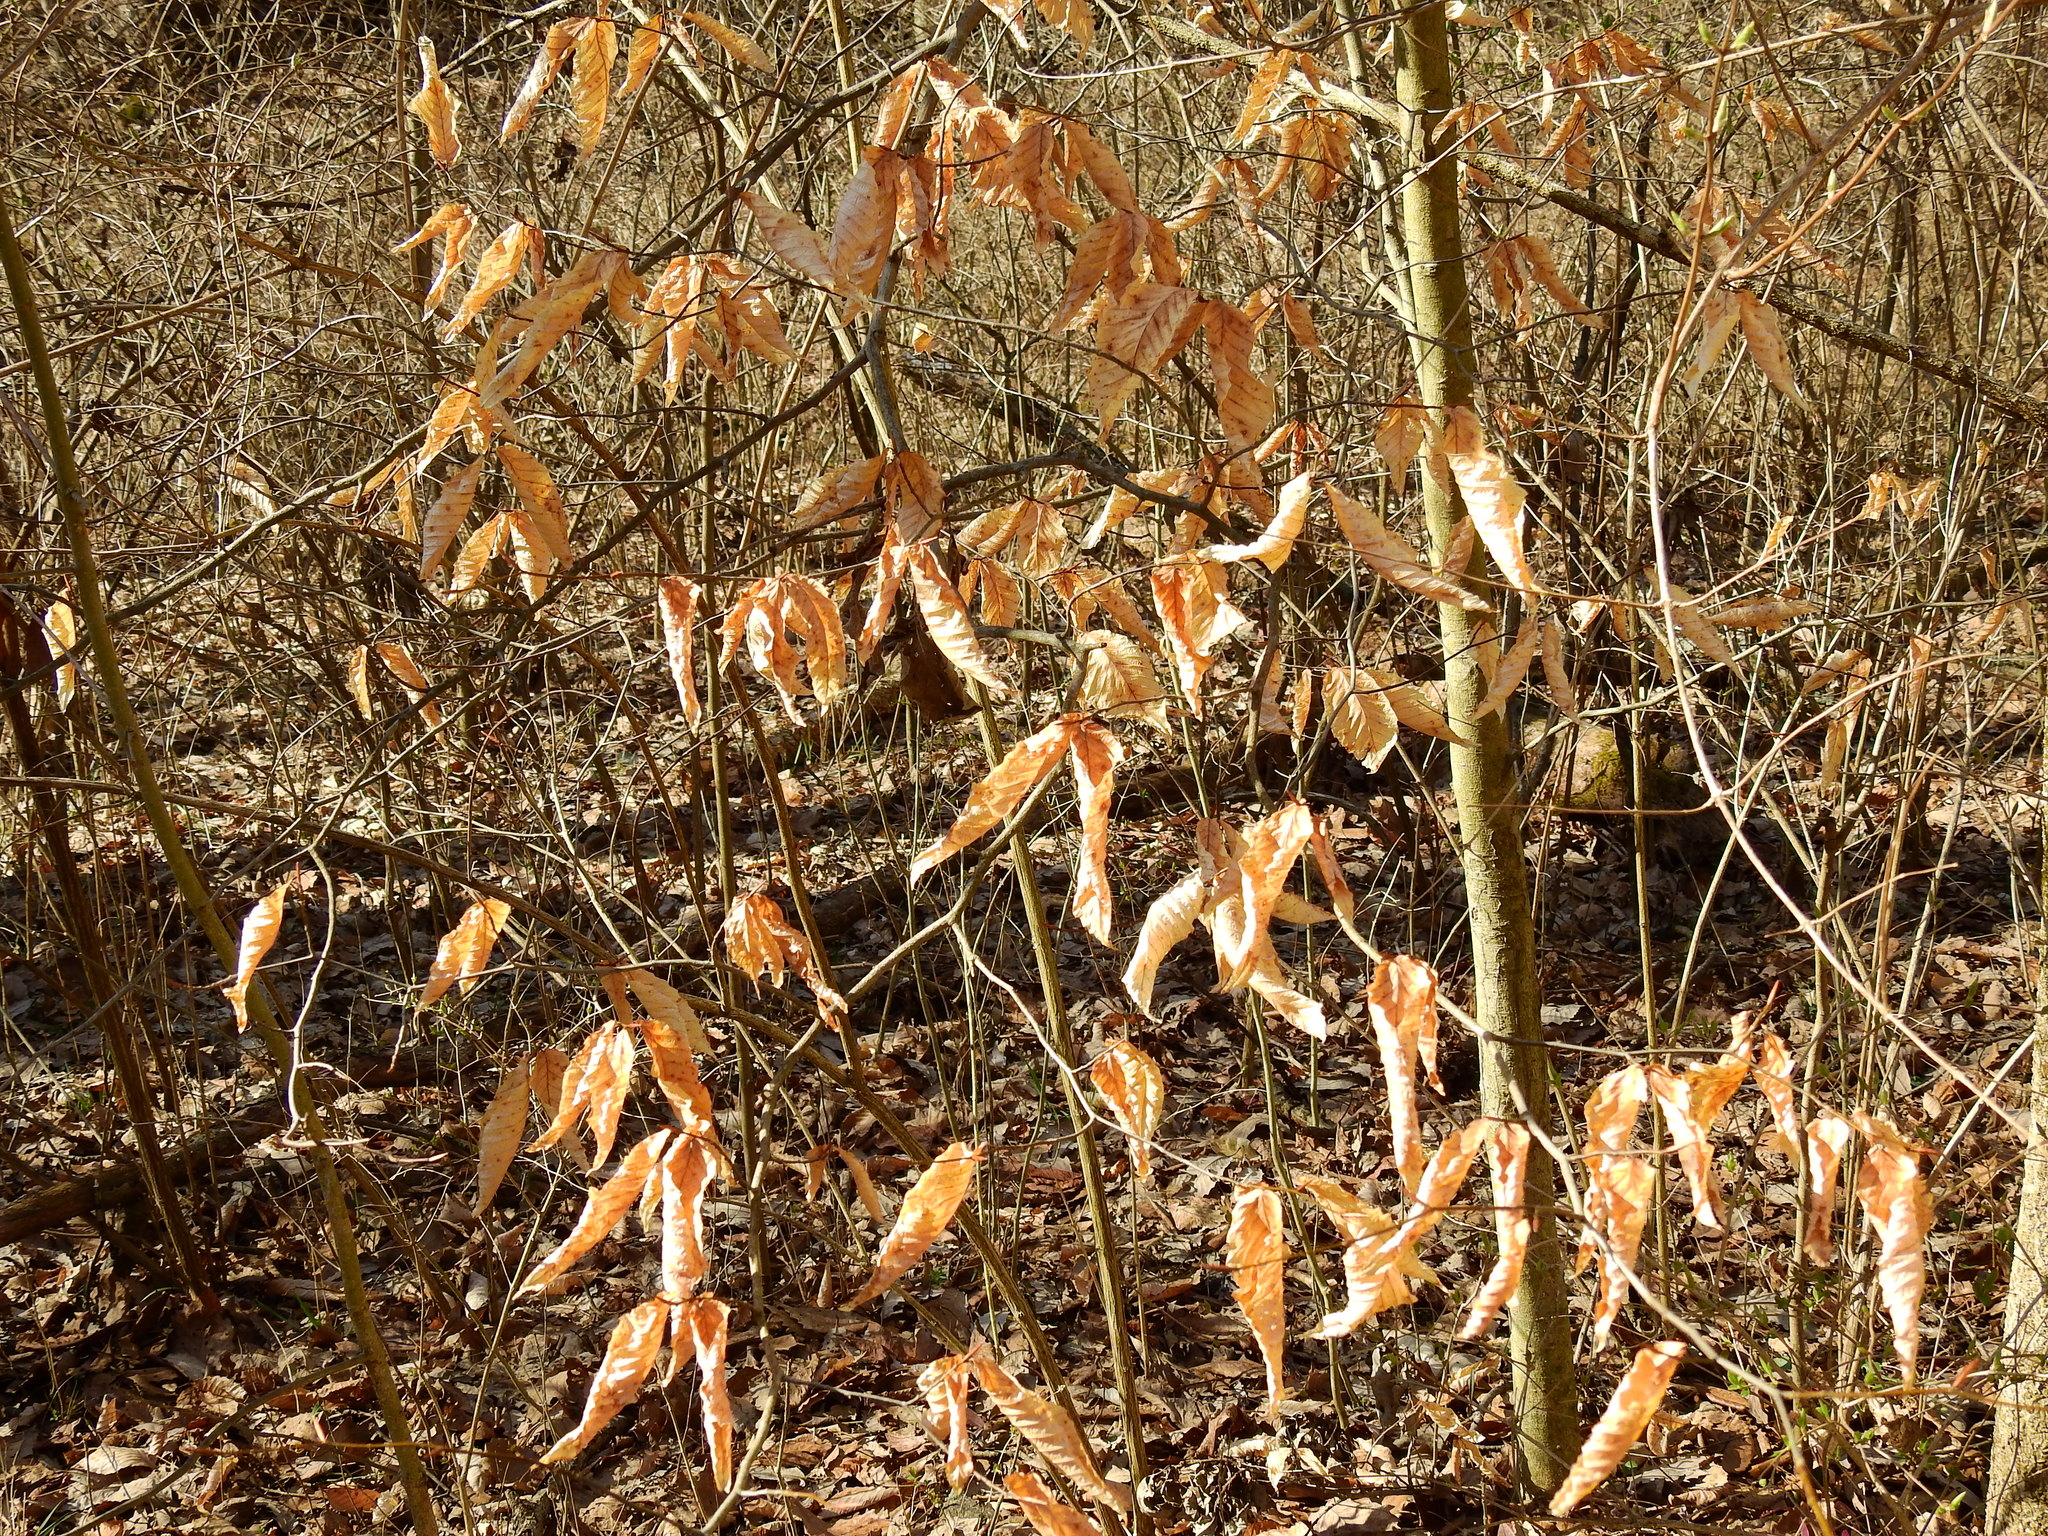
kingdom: Plantae
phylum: Tracheophyta
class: Magnoliopsida
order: Fagales
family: Fagaceae
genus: Fagus
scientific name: Fagus grandifolia
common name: American beech
